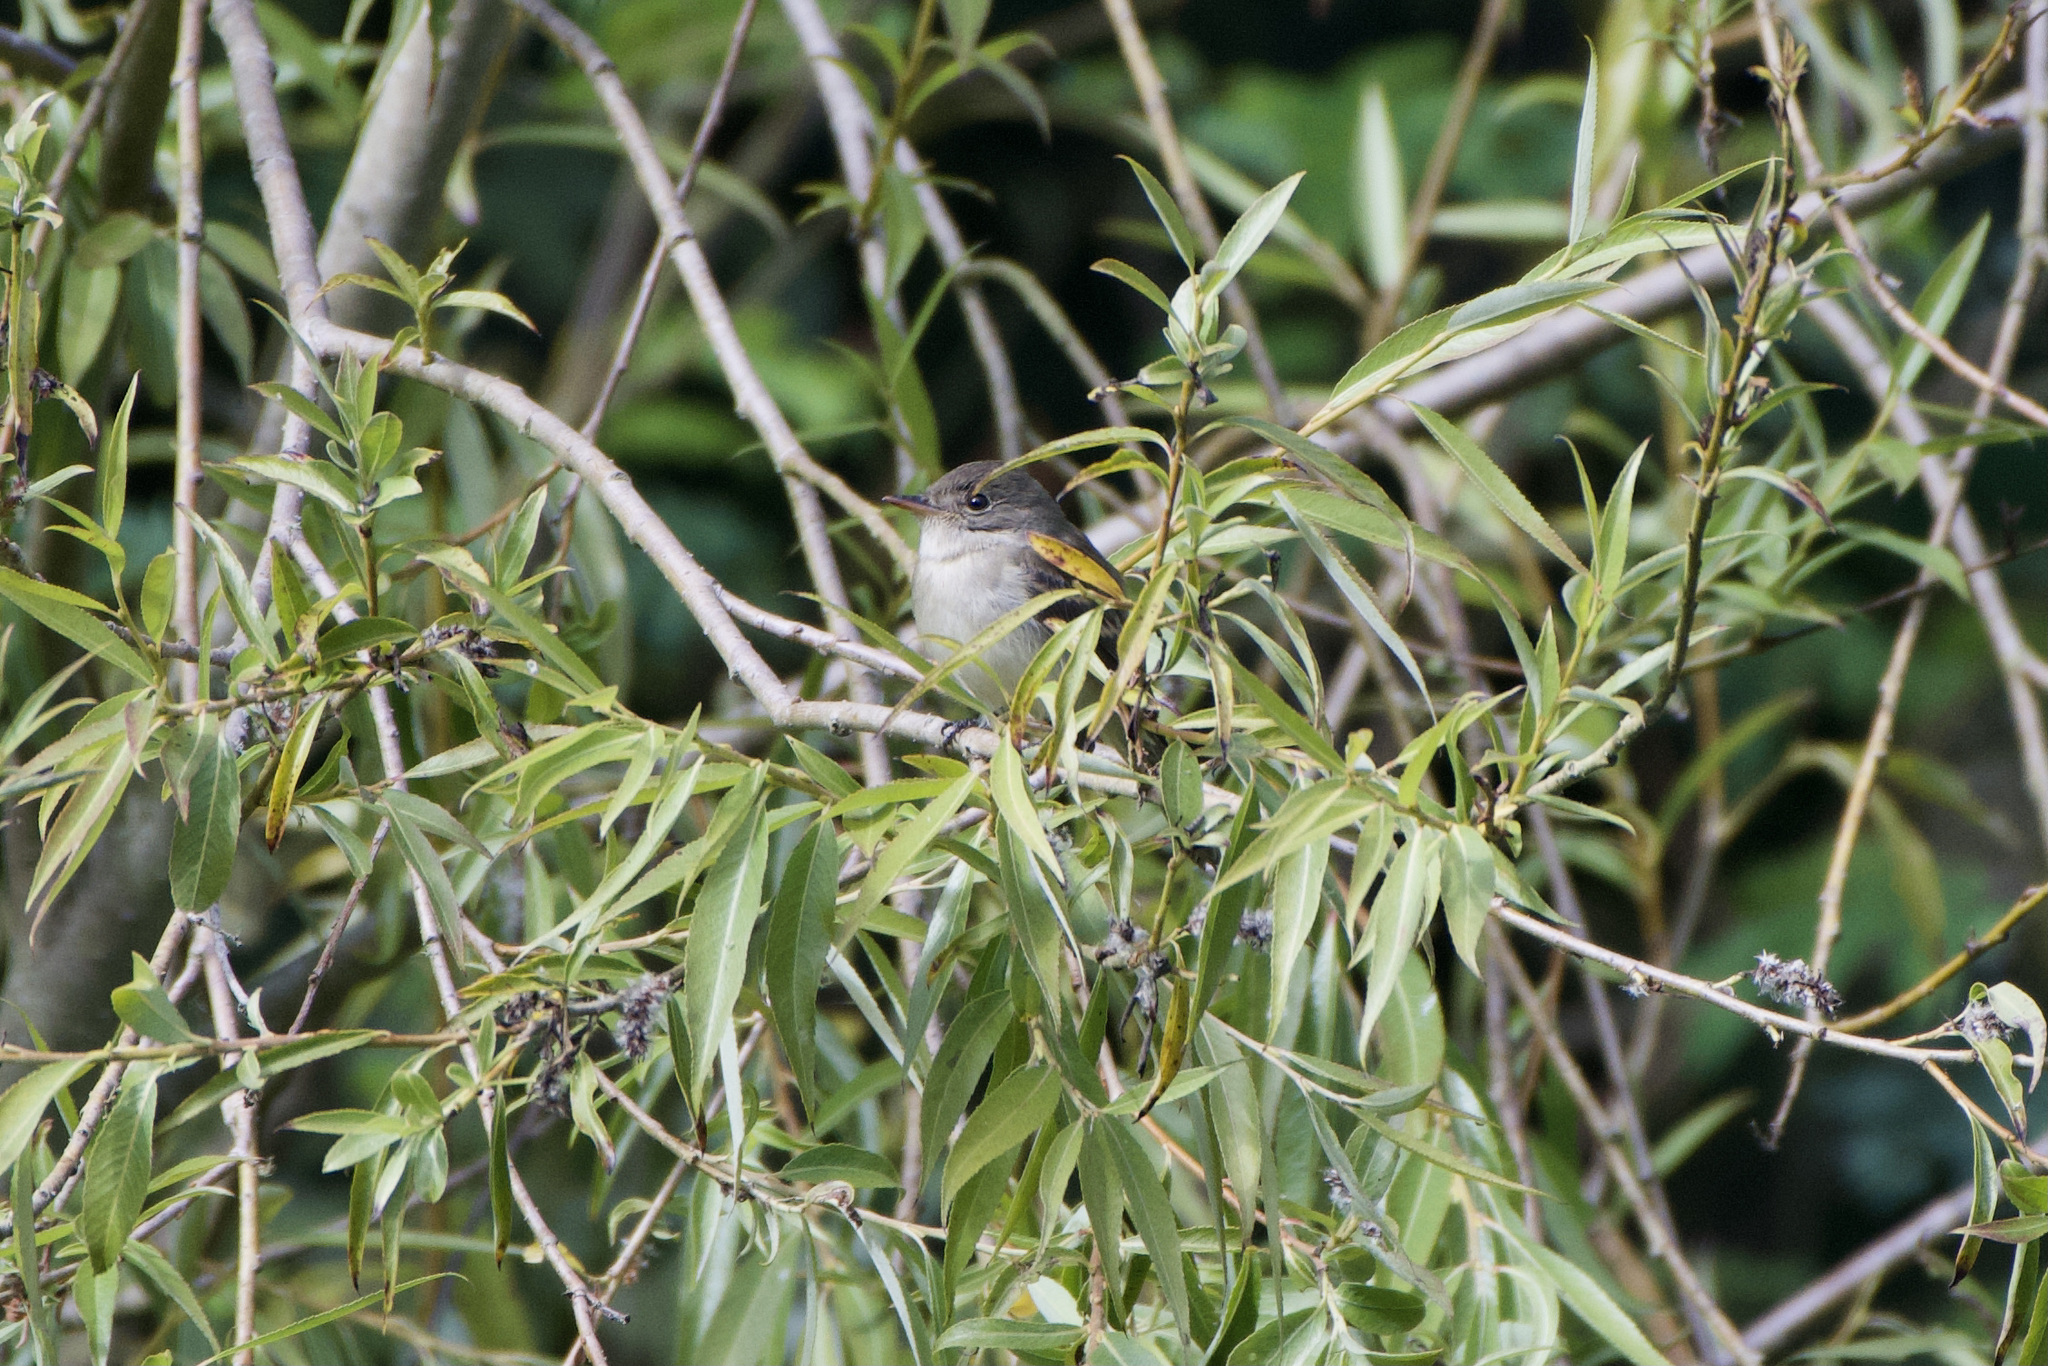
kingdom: Animalia
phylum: Chordata
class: Aves
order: Passeriformes
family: Tyrannidae
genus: Empidonax
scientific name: Empidonax traillii
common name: Willow flycatcher
